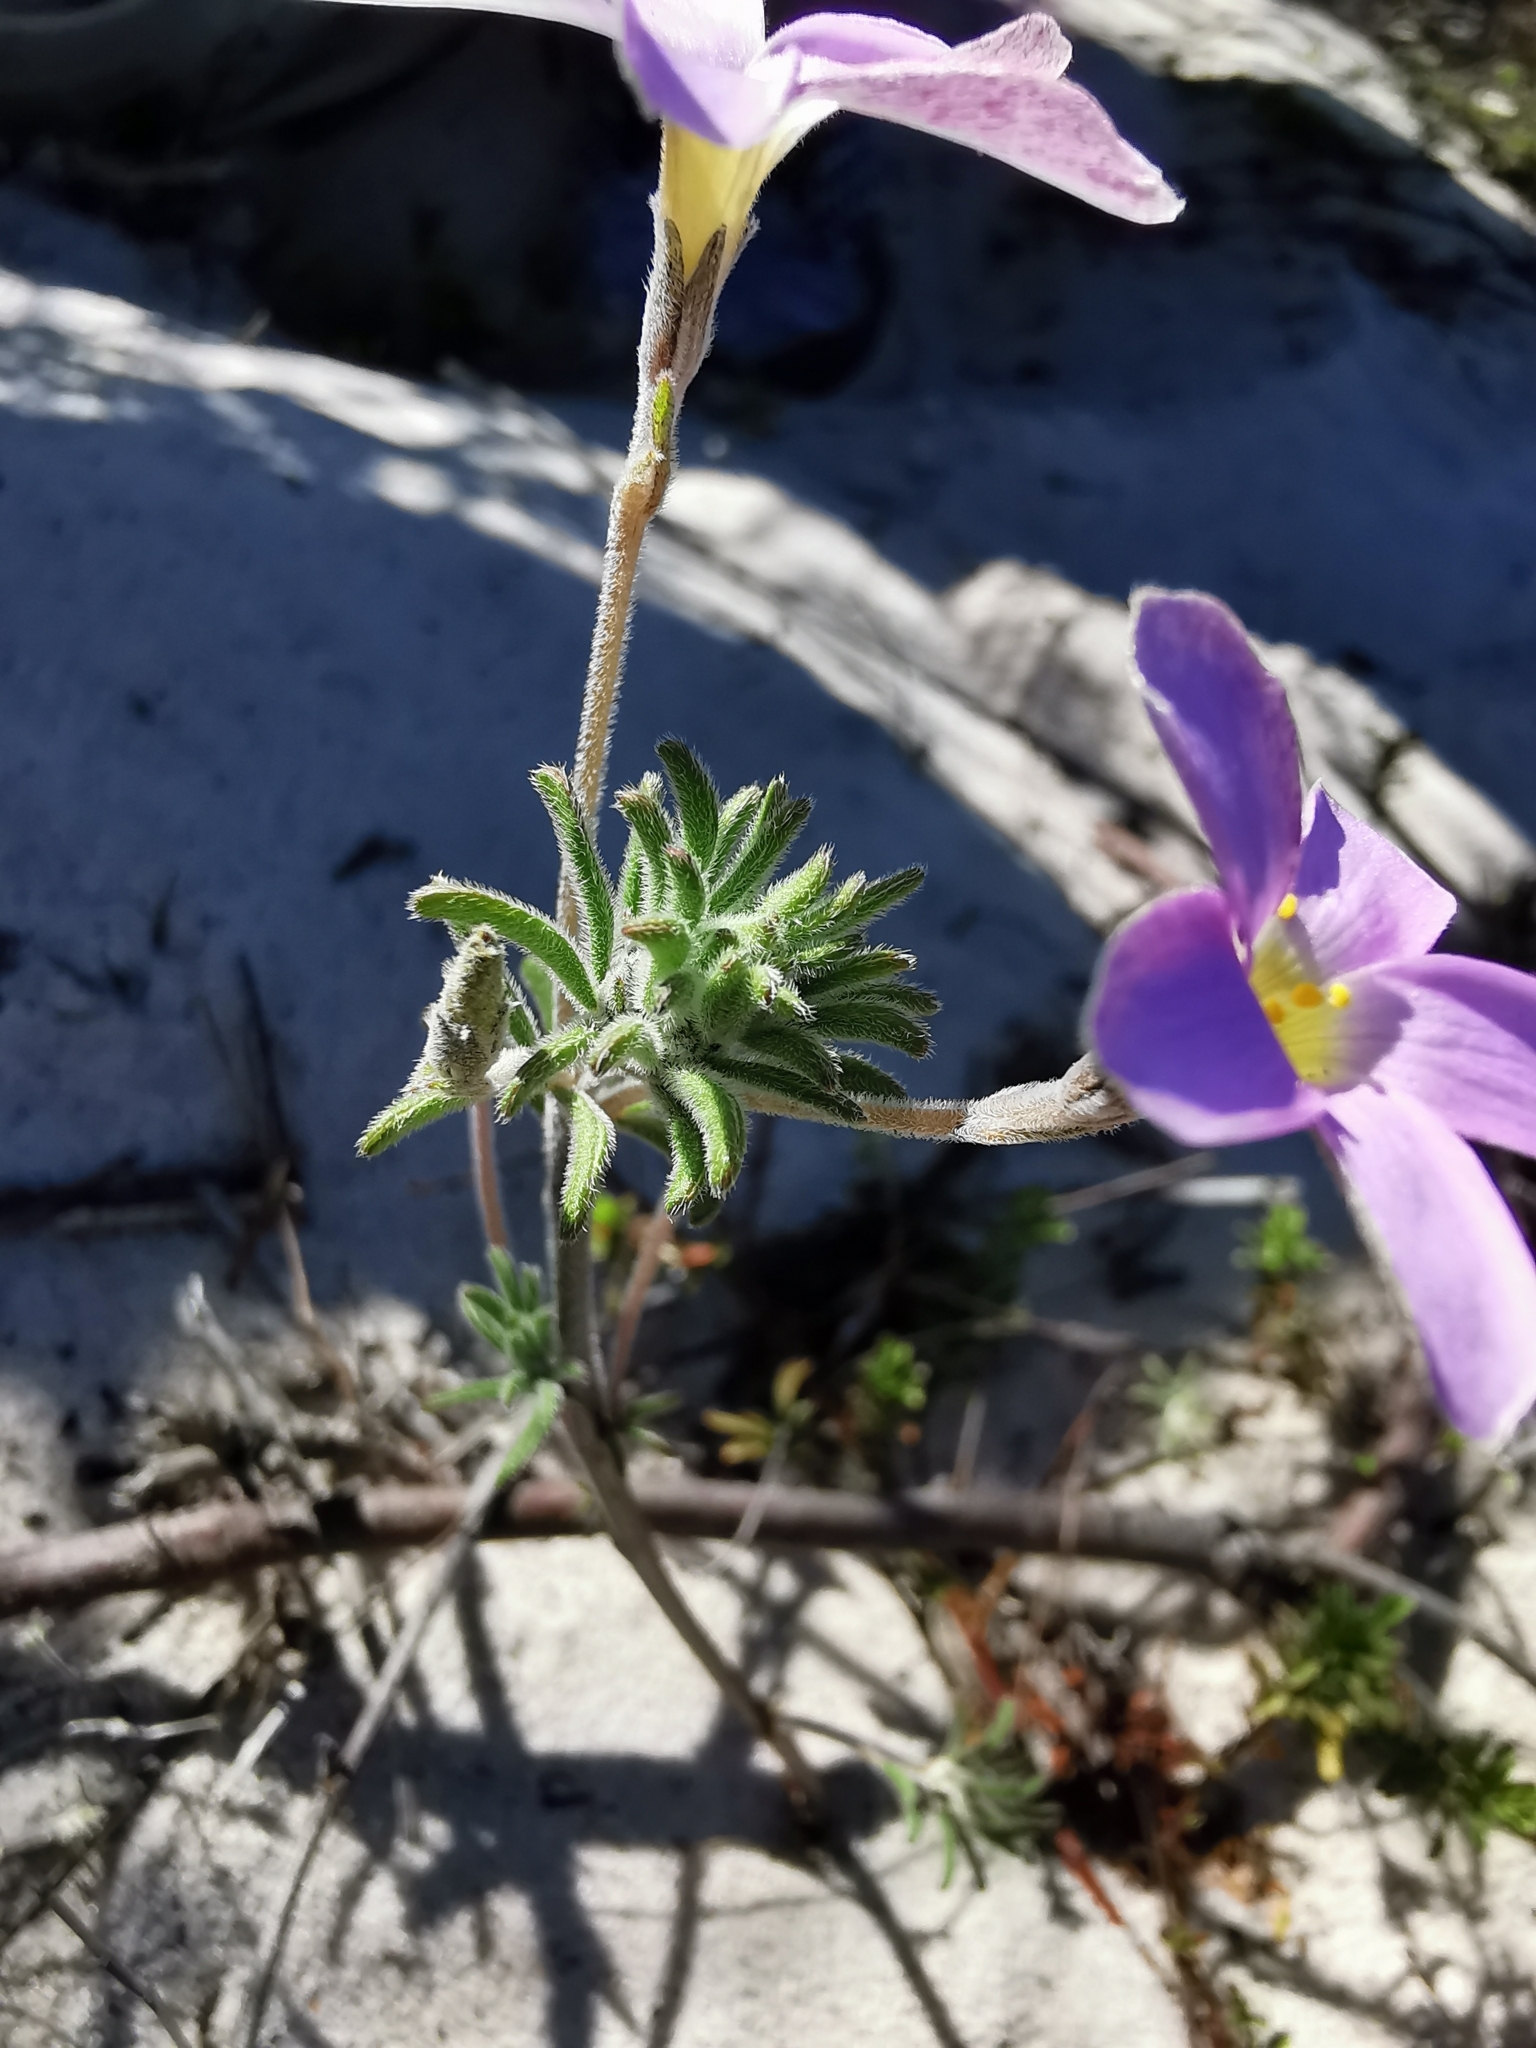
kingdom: Plantae
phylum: Tracheophyta
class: Magnoliopsida
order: Oxalidales
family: Oxalidaceae
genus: Oxalis
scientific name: Oxalis hirta
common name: Tropical woodsorrel
